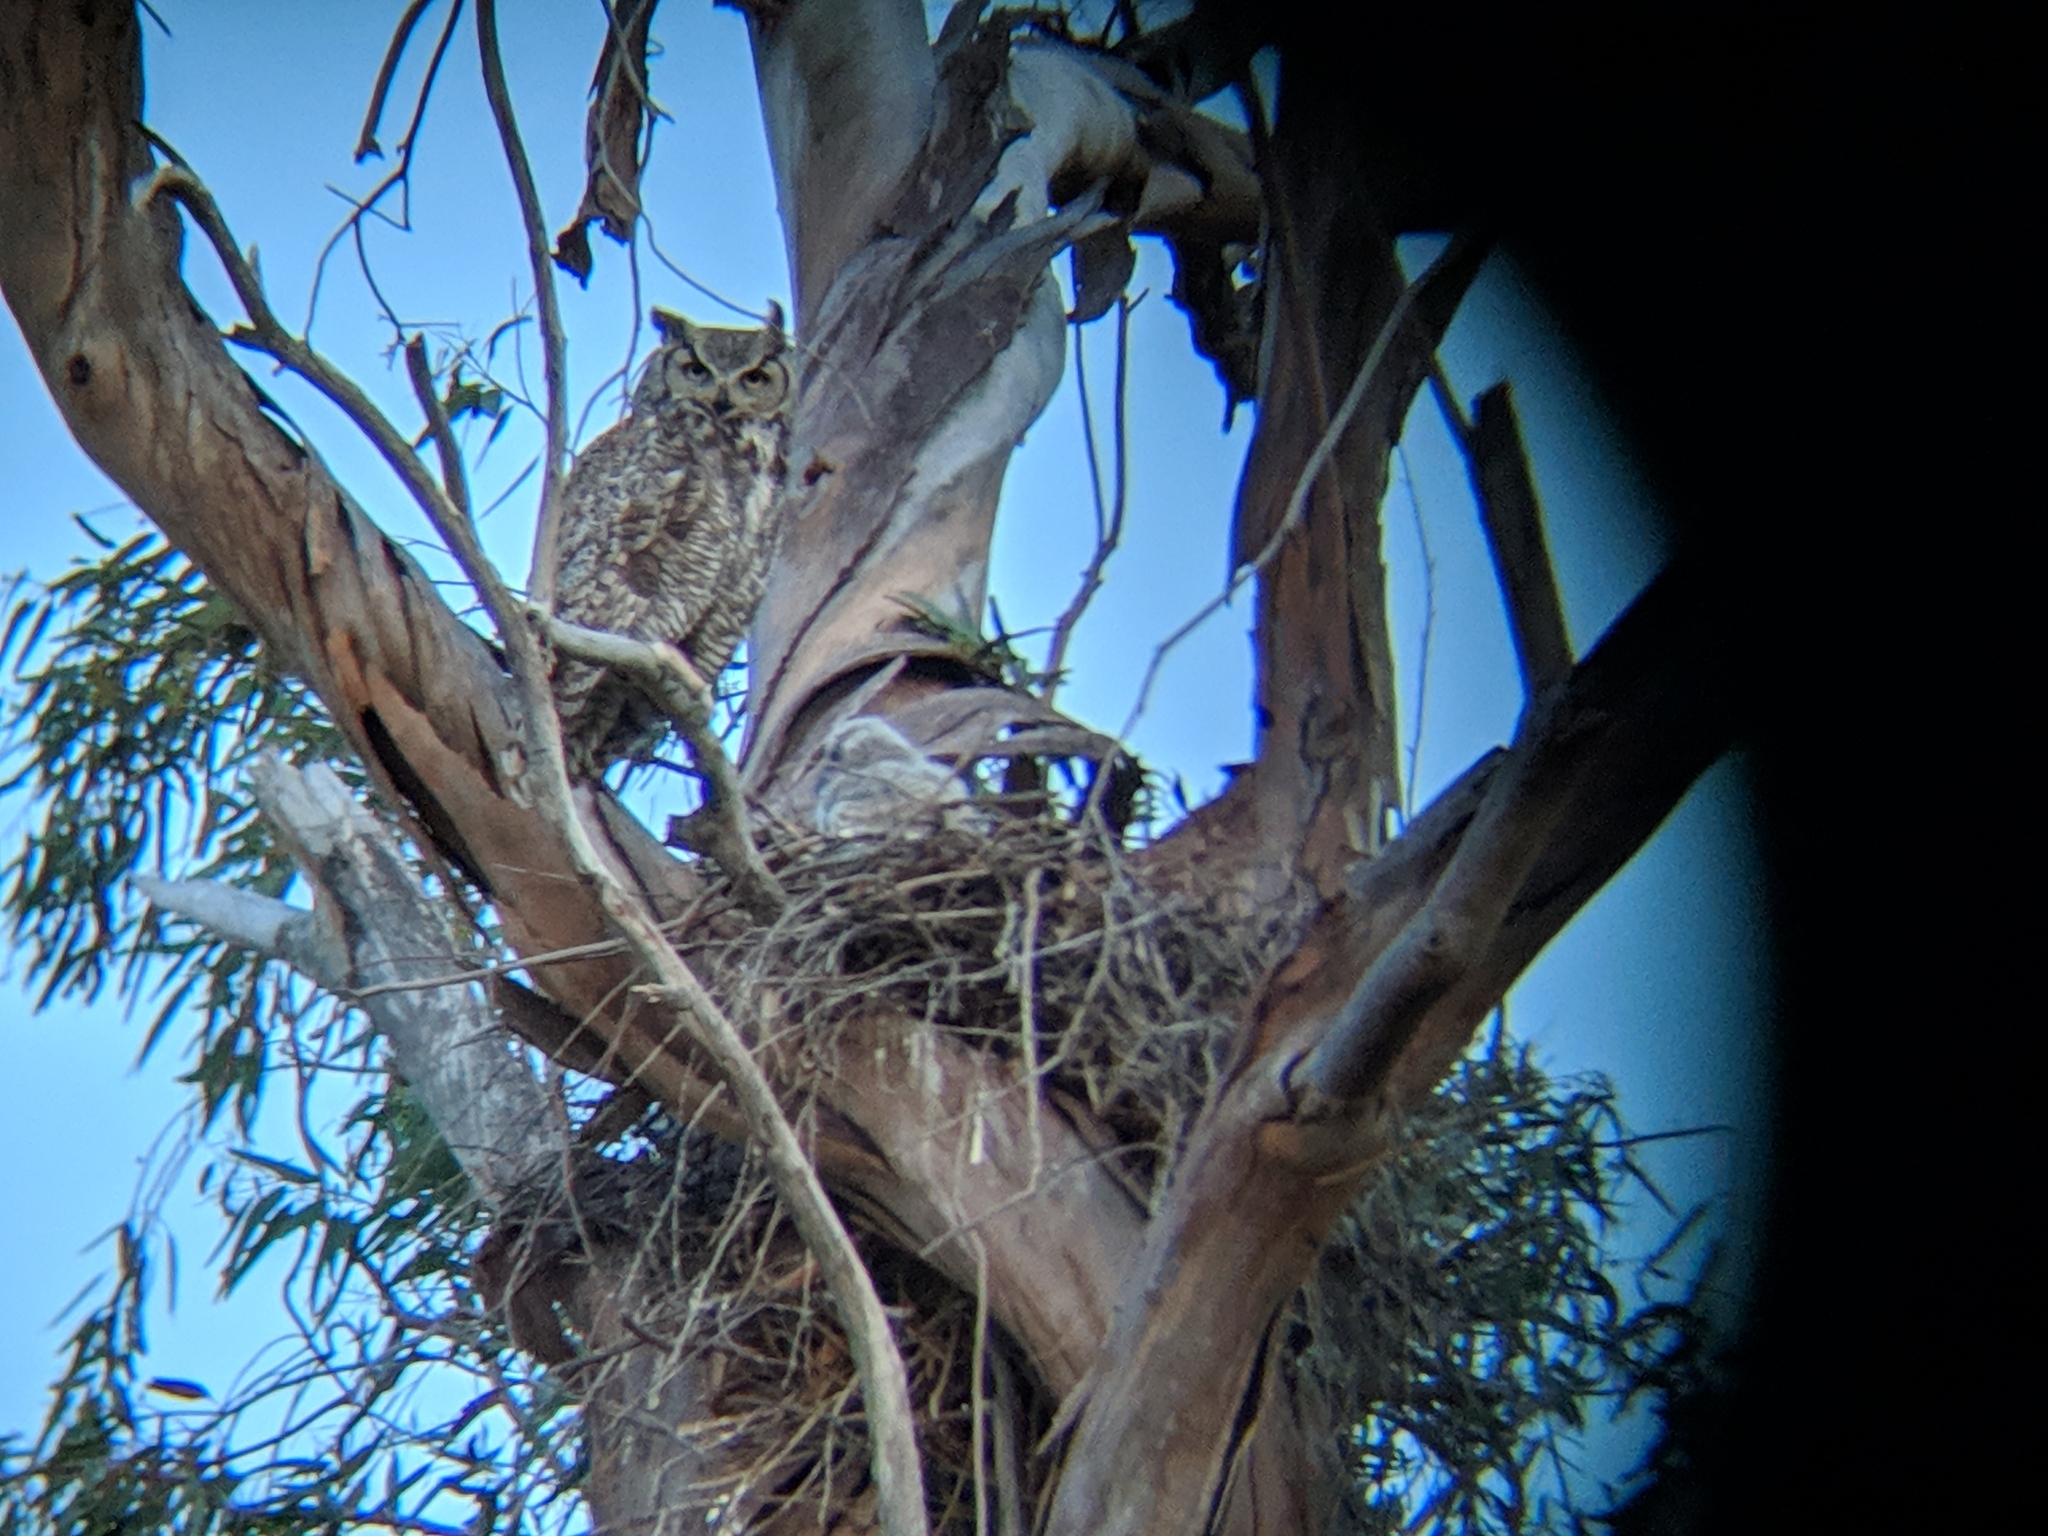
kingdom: Animalia
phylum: Chordata
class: Aves
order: Strigiformes
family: Strigidae
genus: Bubo
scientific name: Bubo virginianus
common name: Great horned owl
